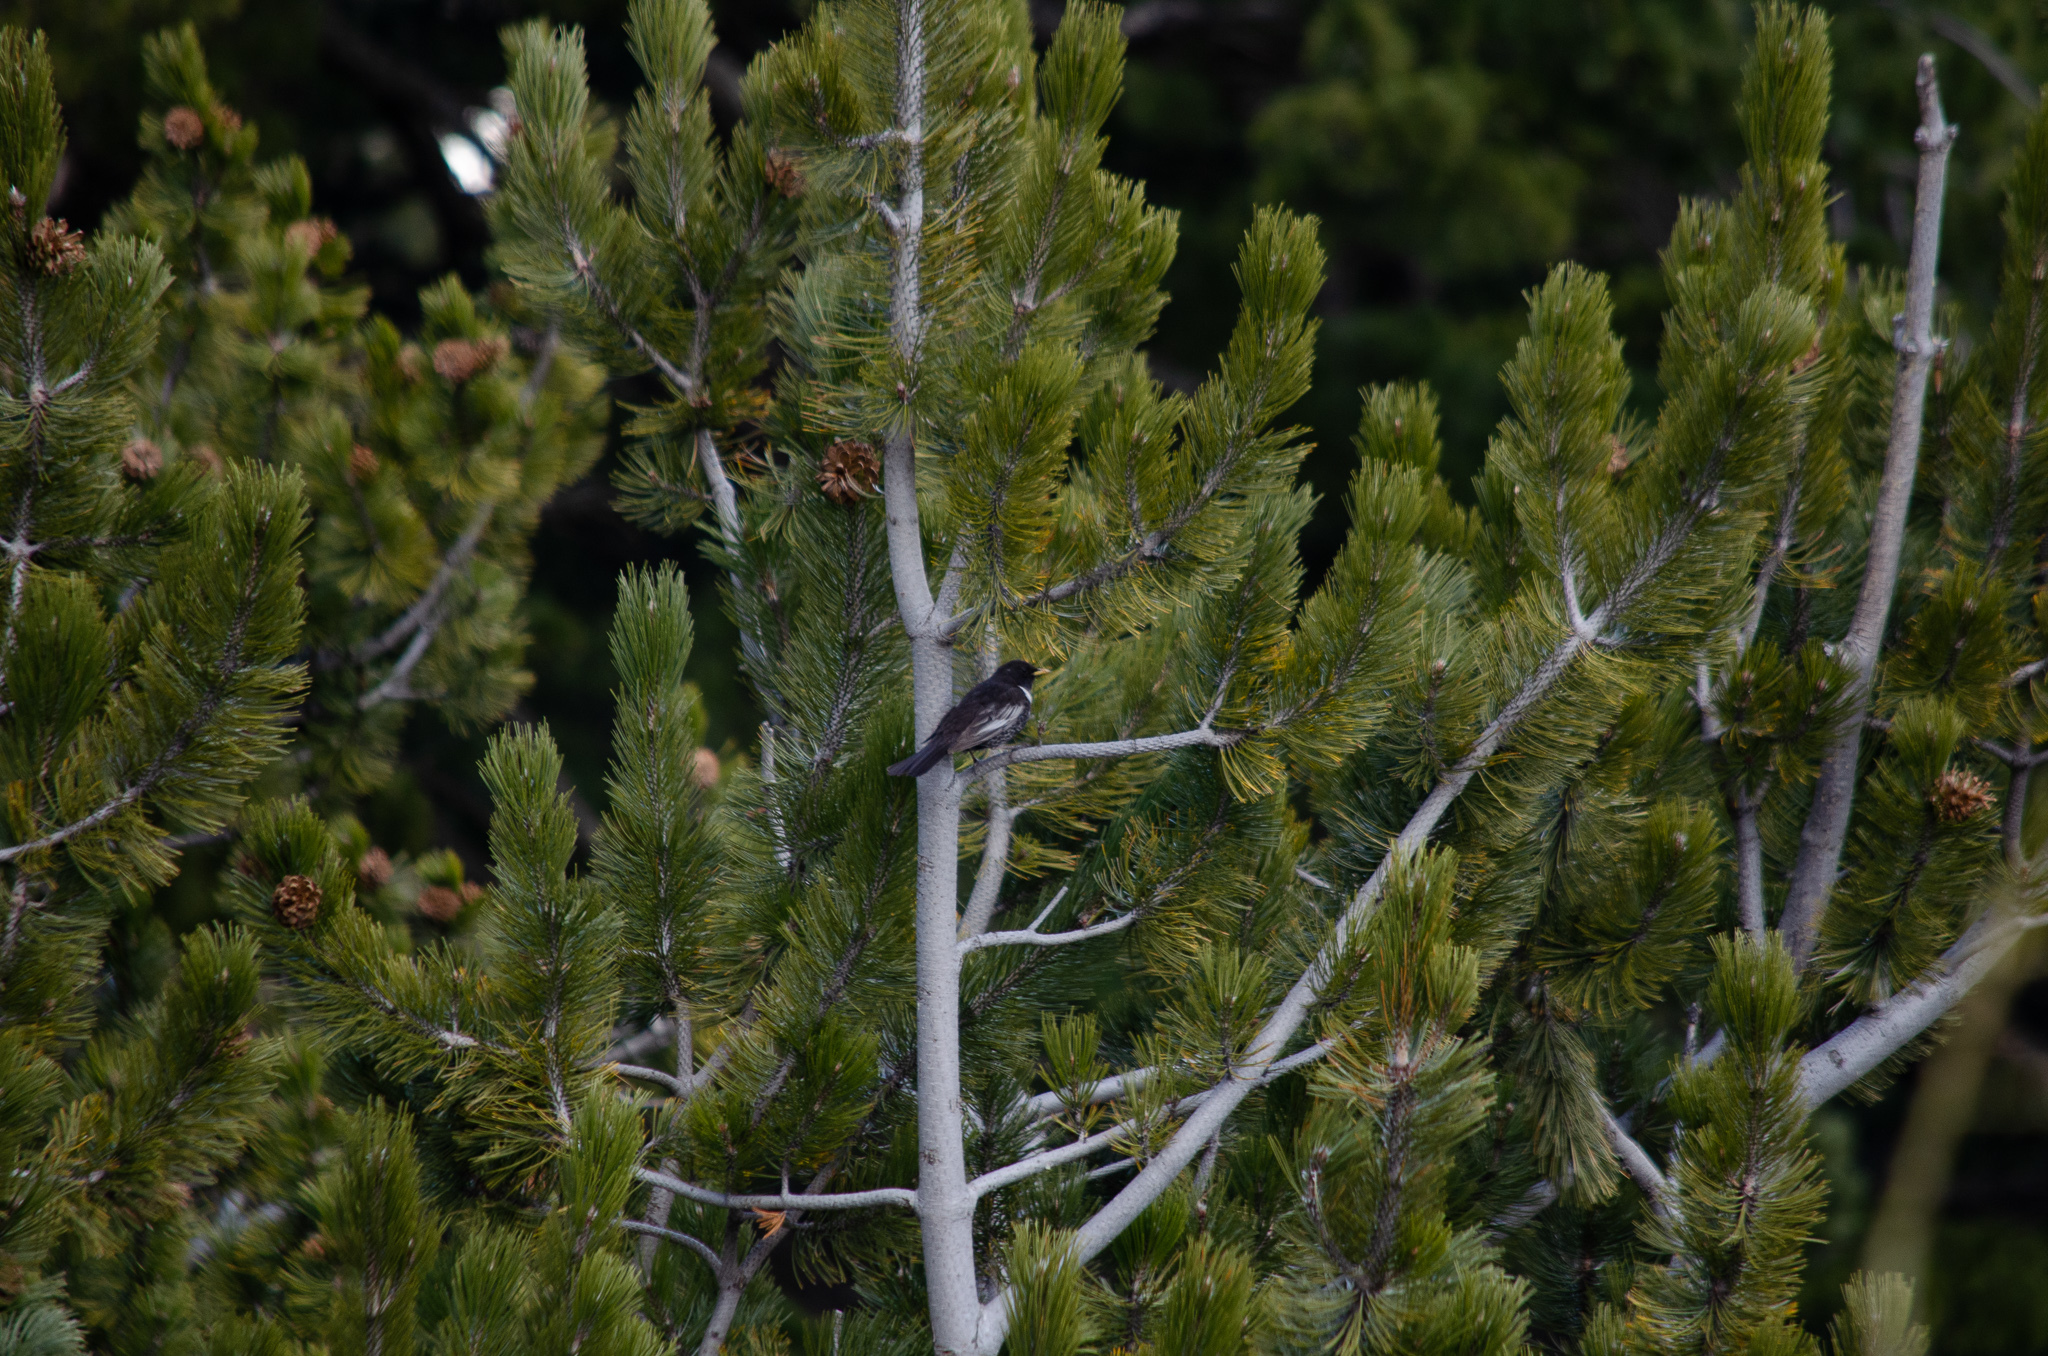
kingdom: Animalia
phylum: Chordata
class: Aves
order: Passeriformes
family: Turdidae
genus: Turdus
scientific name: Turdus torquatus
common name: Ring ouzel
